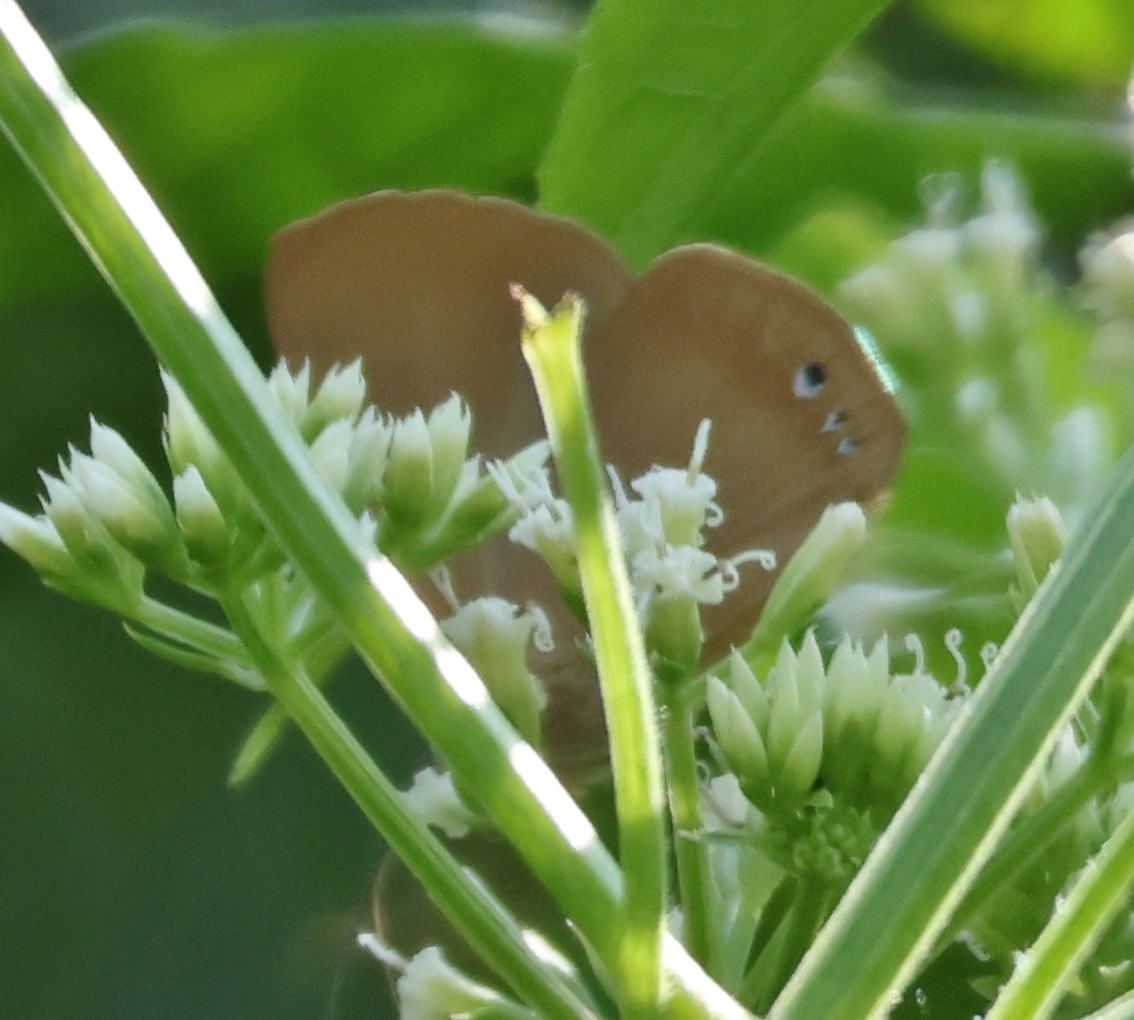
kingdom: Animalia
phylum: Arthropoda
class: Insecta
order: Lepidoptera
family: Nymphalidae
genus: Ethope
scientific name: Ethope
